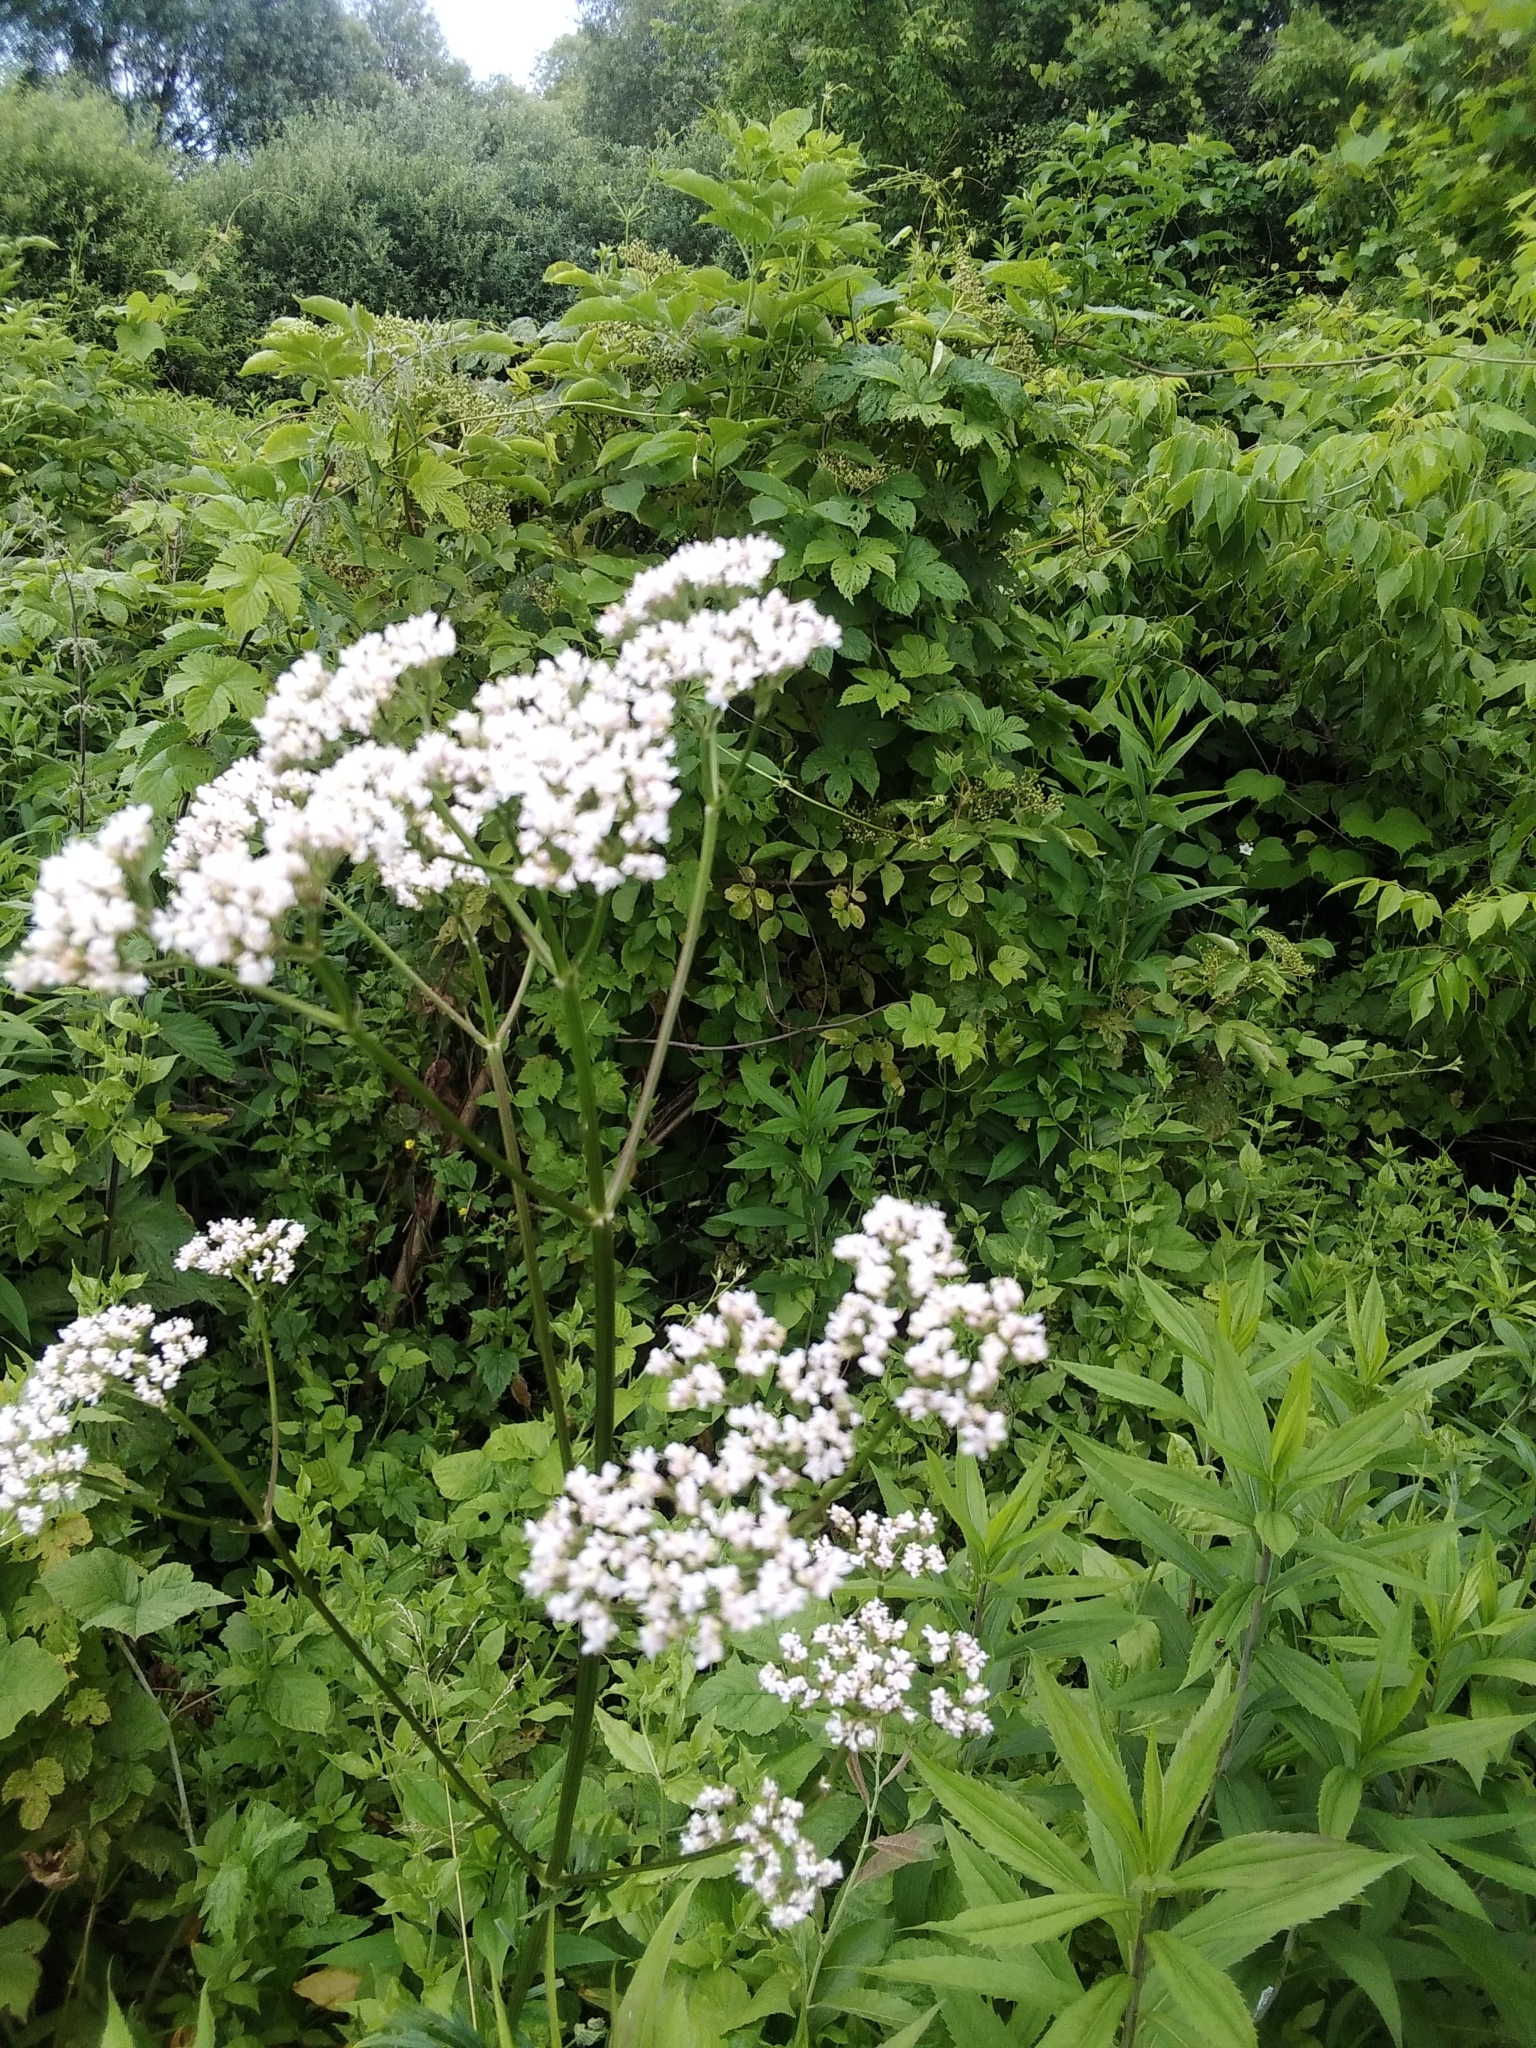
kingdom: Plantae
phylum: Tracheophyta
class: Magnoliopsida
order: Dipsacales
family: Caprifoliaceae
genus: Valeriana
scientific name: Valeriana officinalis
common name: Common valerian
